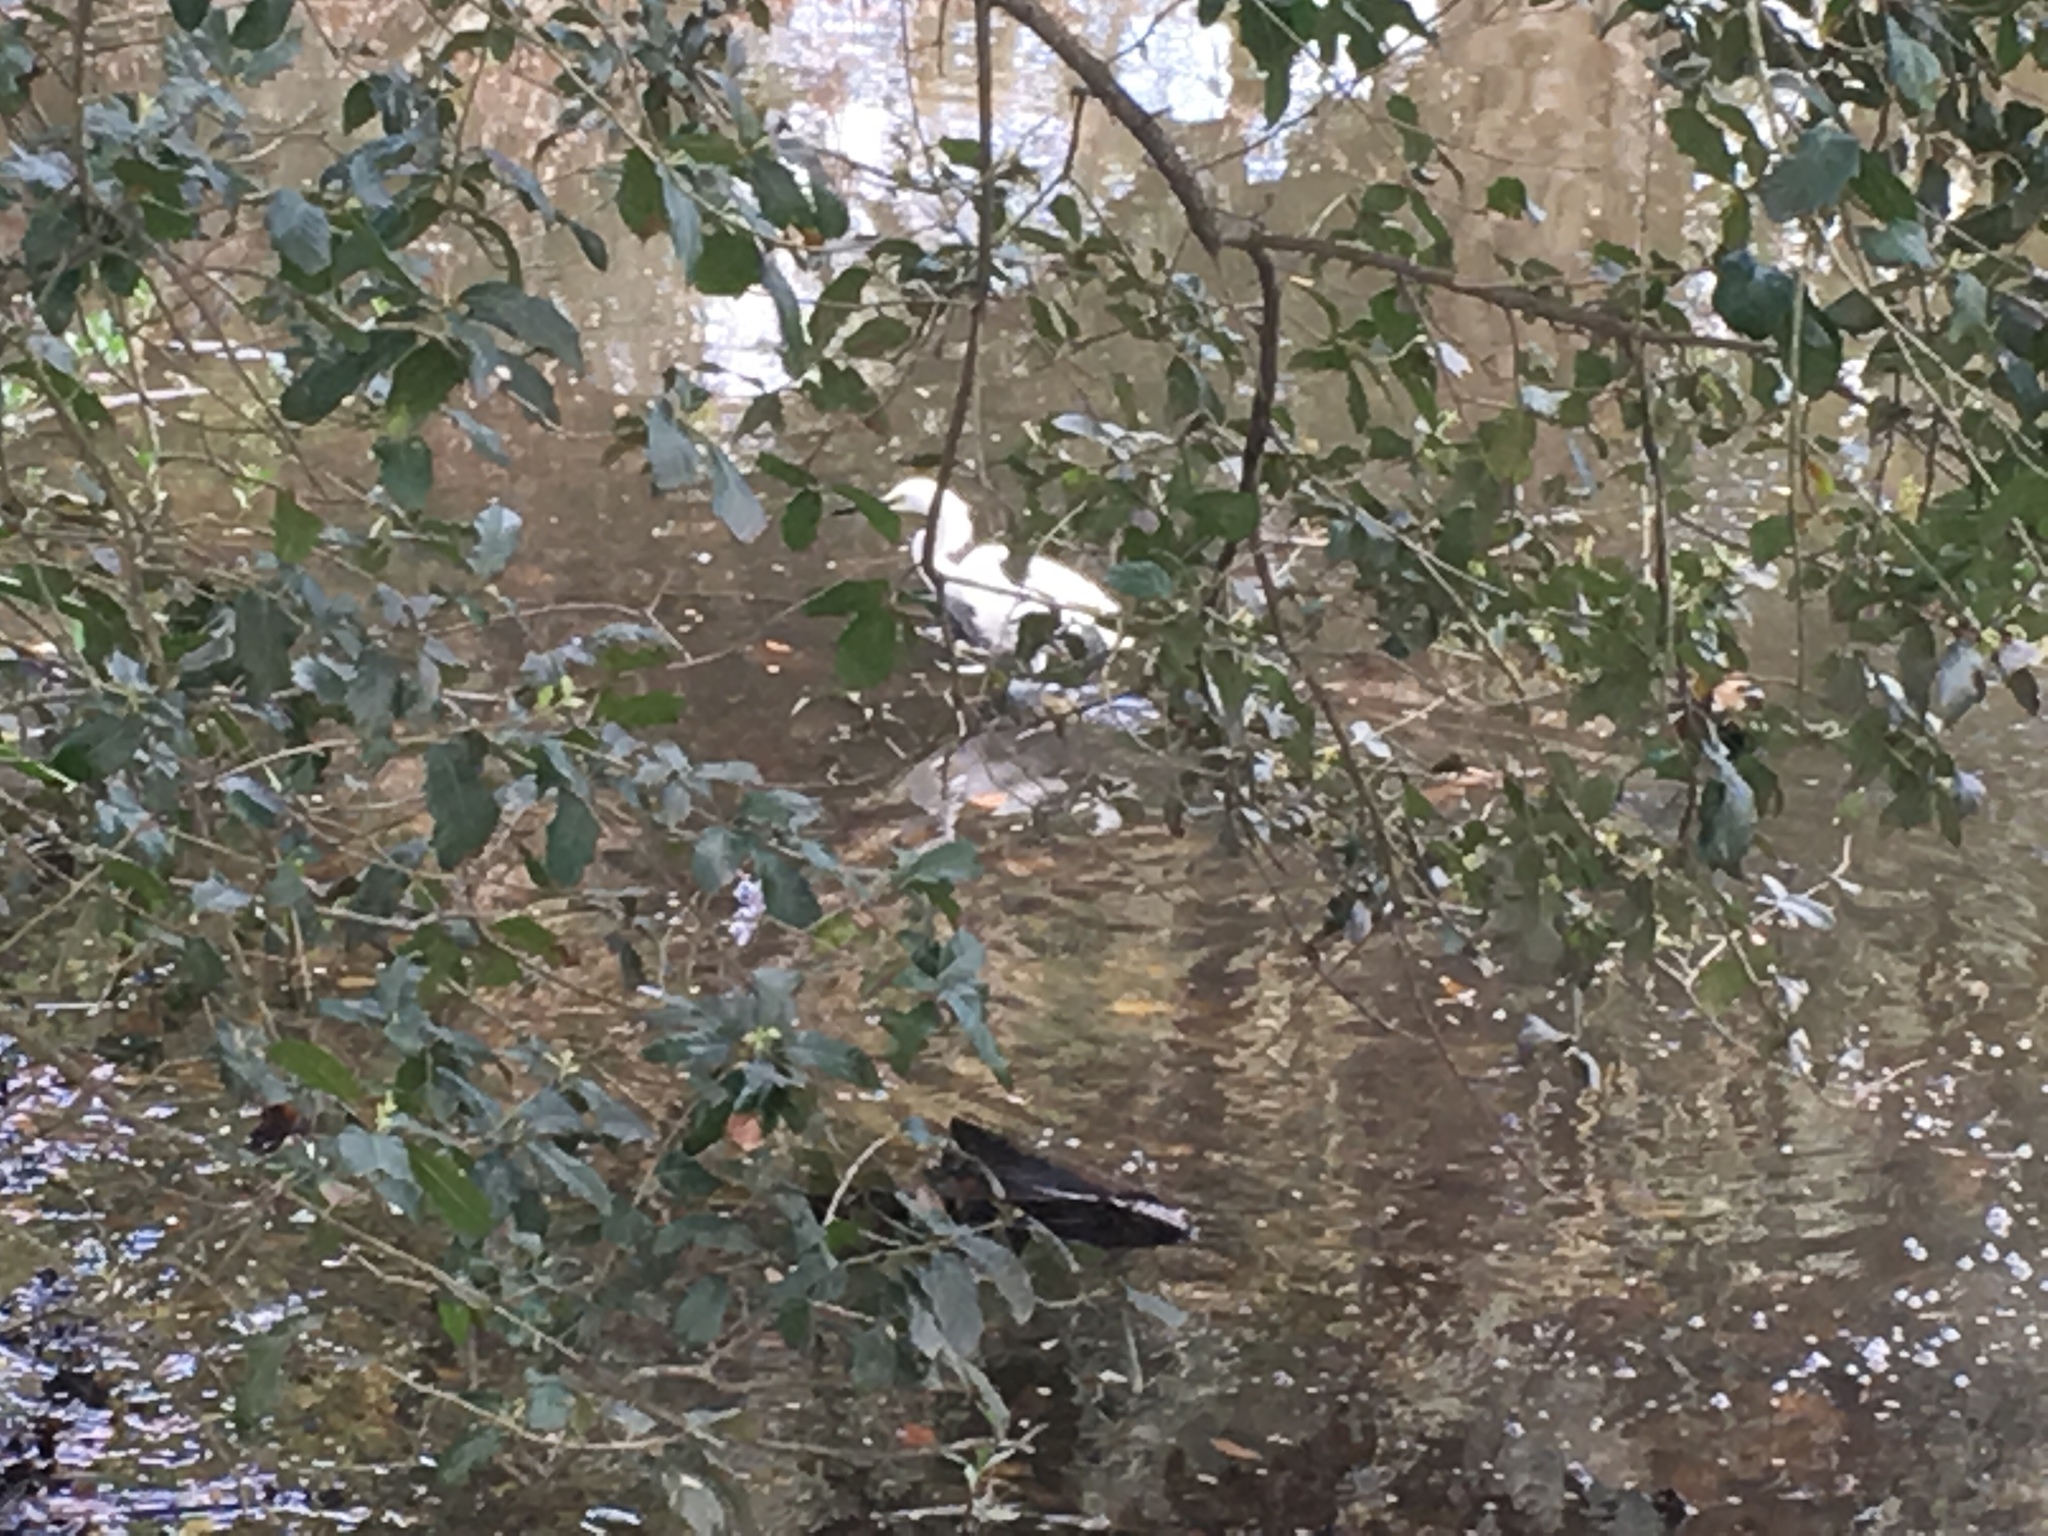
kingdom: Animalia
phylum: Chordata
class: Aves
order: Pelecaniformes
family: Ardeidae
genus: Egretta
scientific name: Egretta thula
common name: Snowy egret
